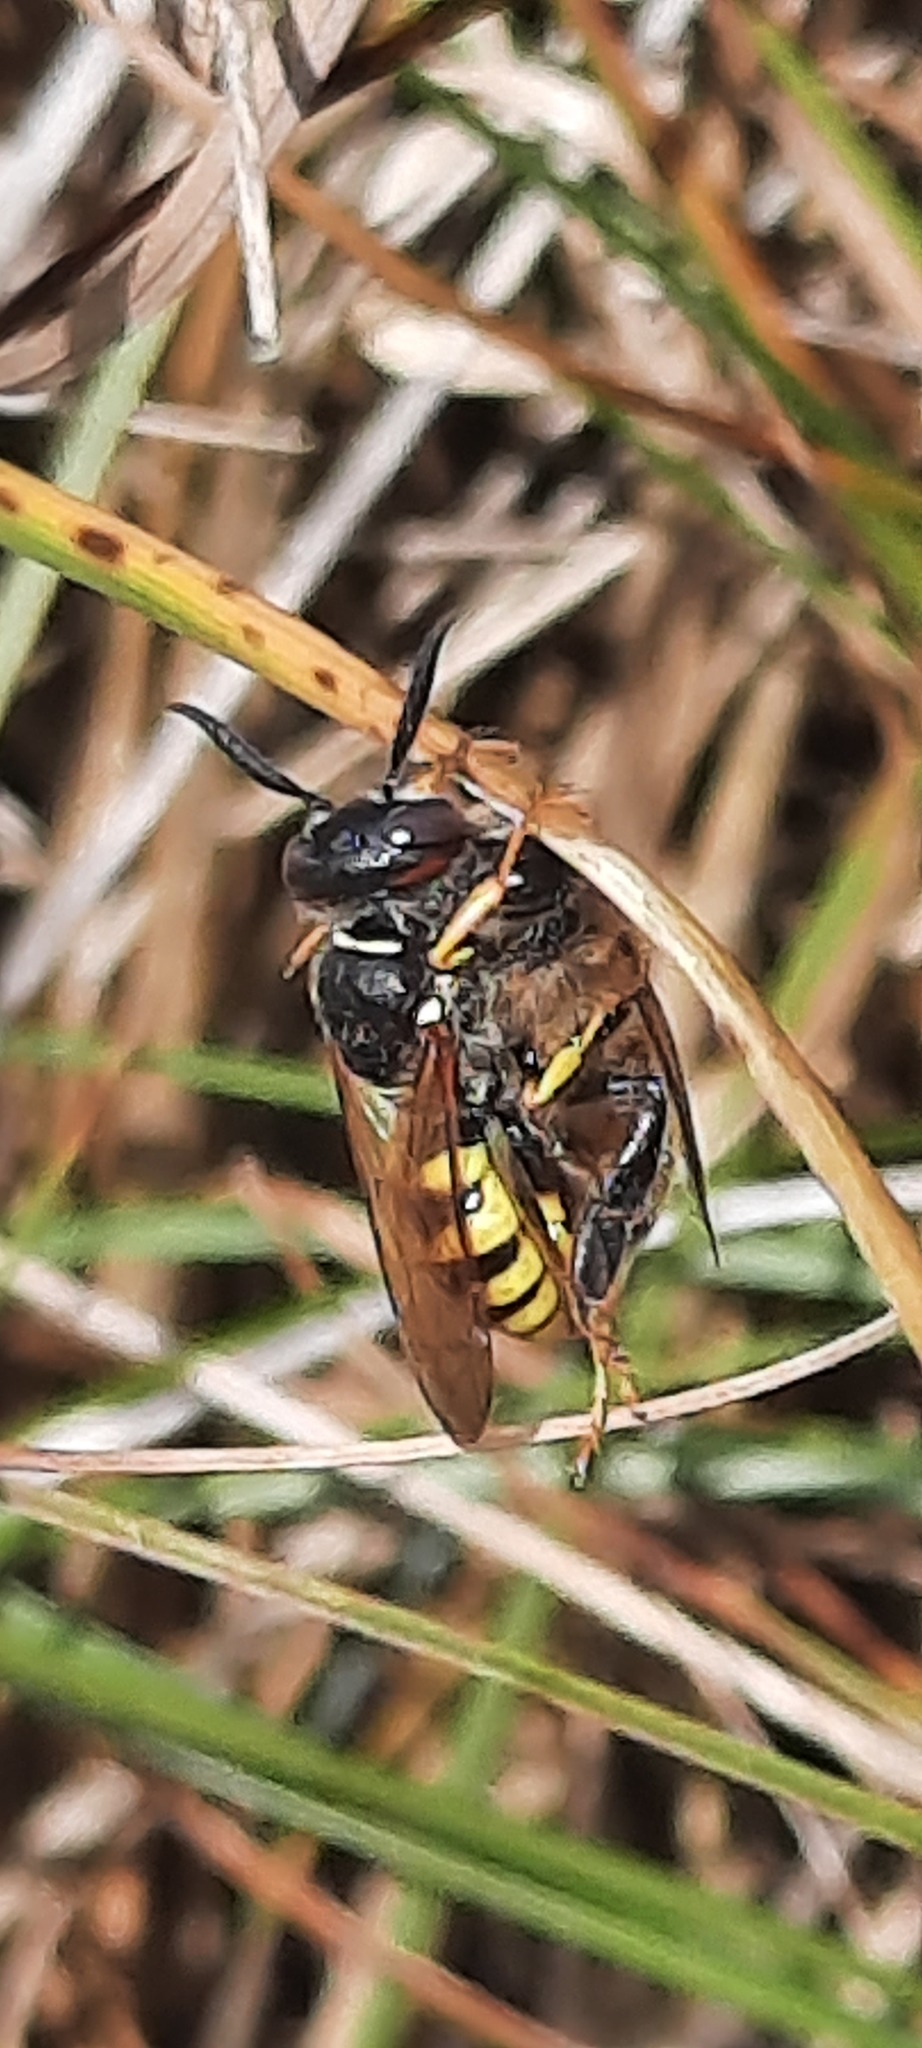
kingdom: Animalia
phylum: Arthropoda
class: Insecta
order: Hymenoptera
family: Crabronidae
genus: Philanthus
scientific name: Philanthus triangulum
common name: Bee wolf
